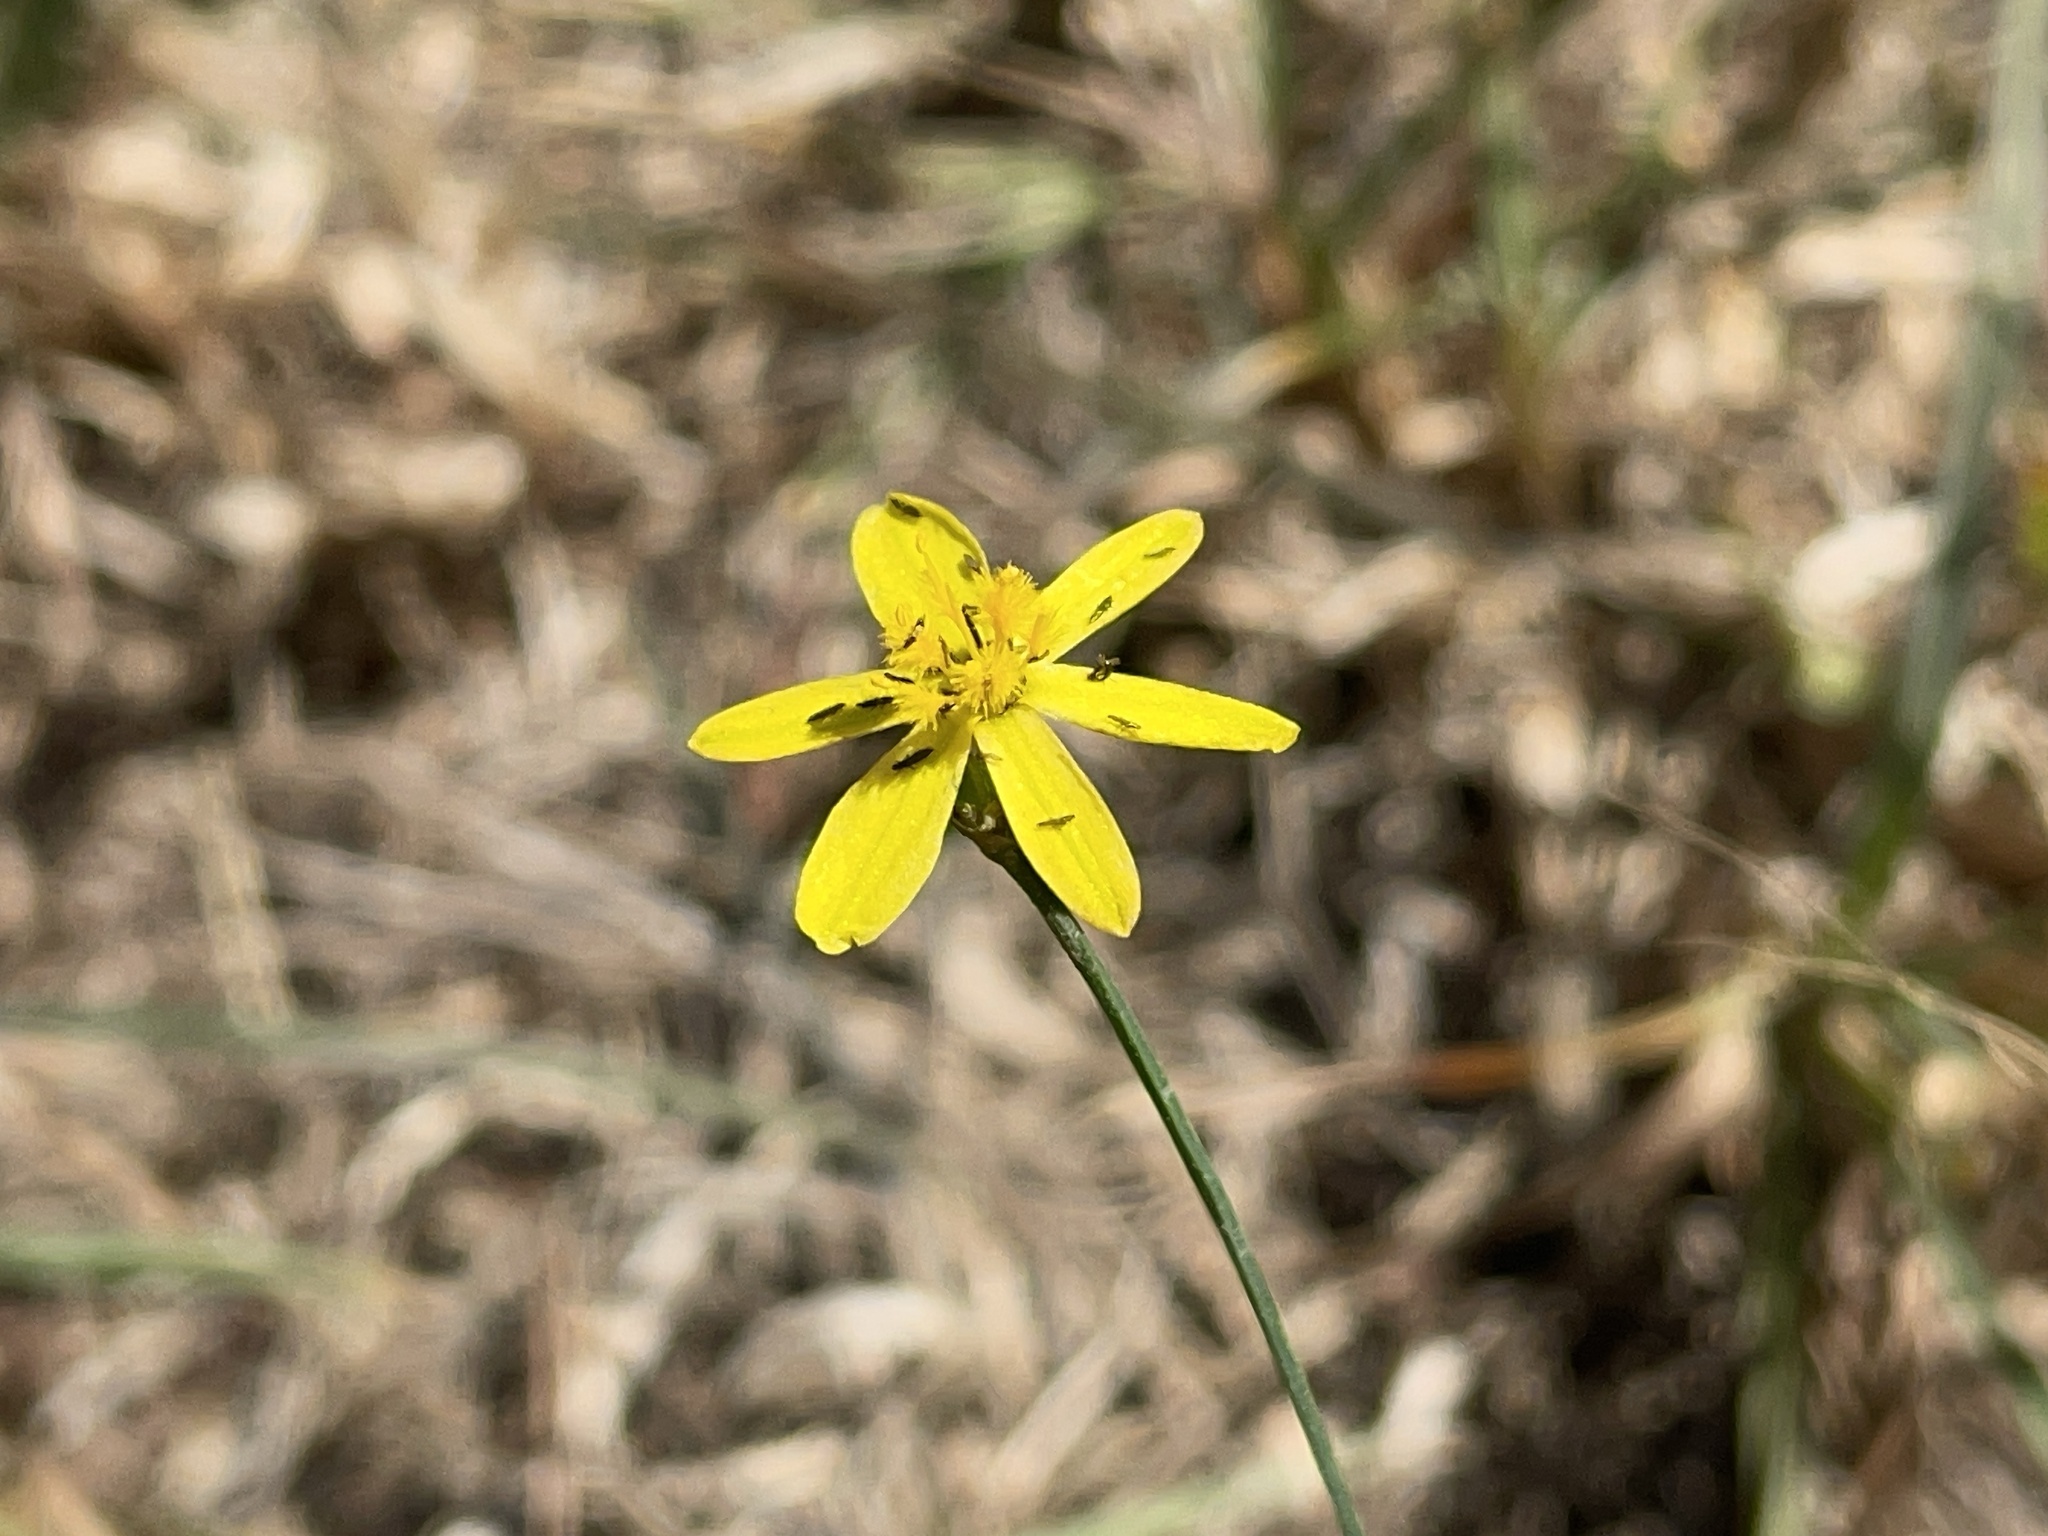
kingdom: Plantae
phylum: Tracheophyta
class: Liliopsida
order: Asparagales
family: Asphodelaceae
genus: Tricoryne
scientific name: Tricoryne elatior
